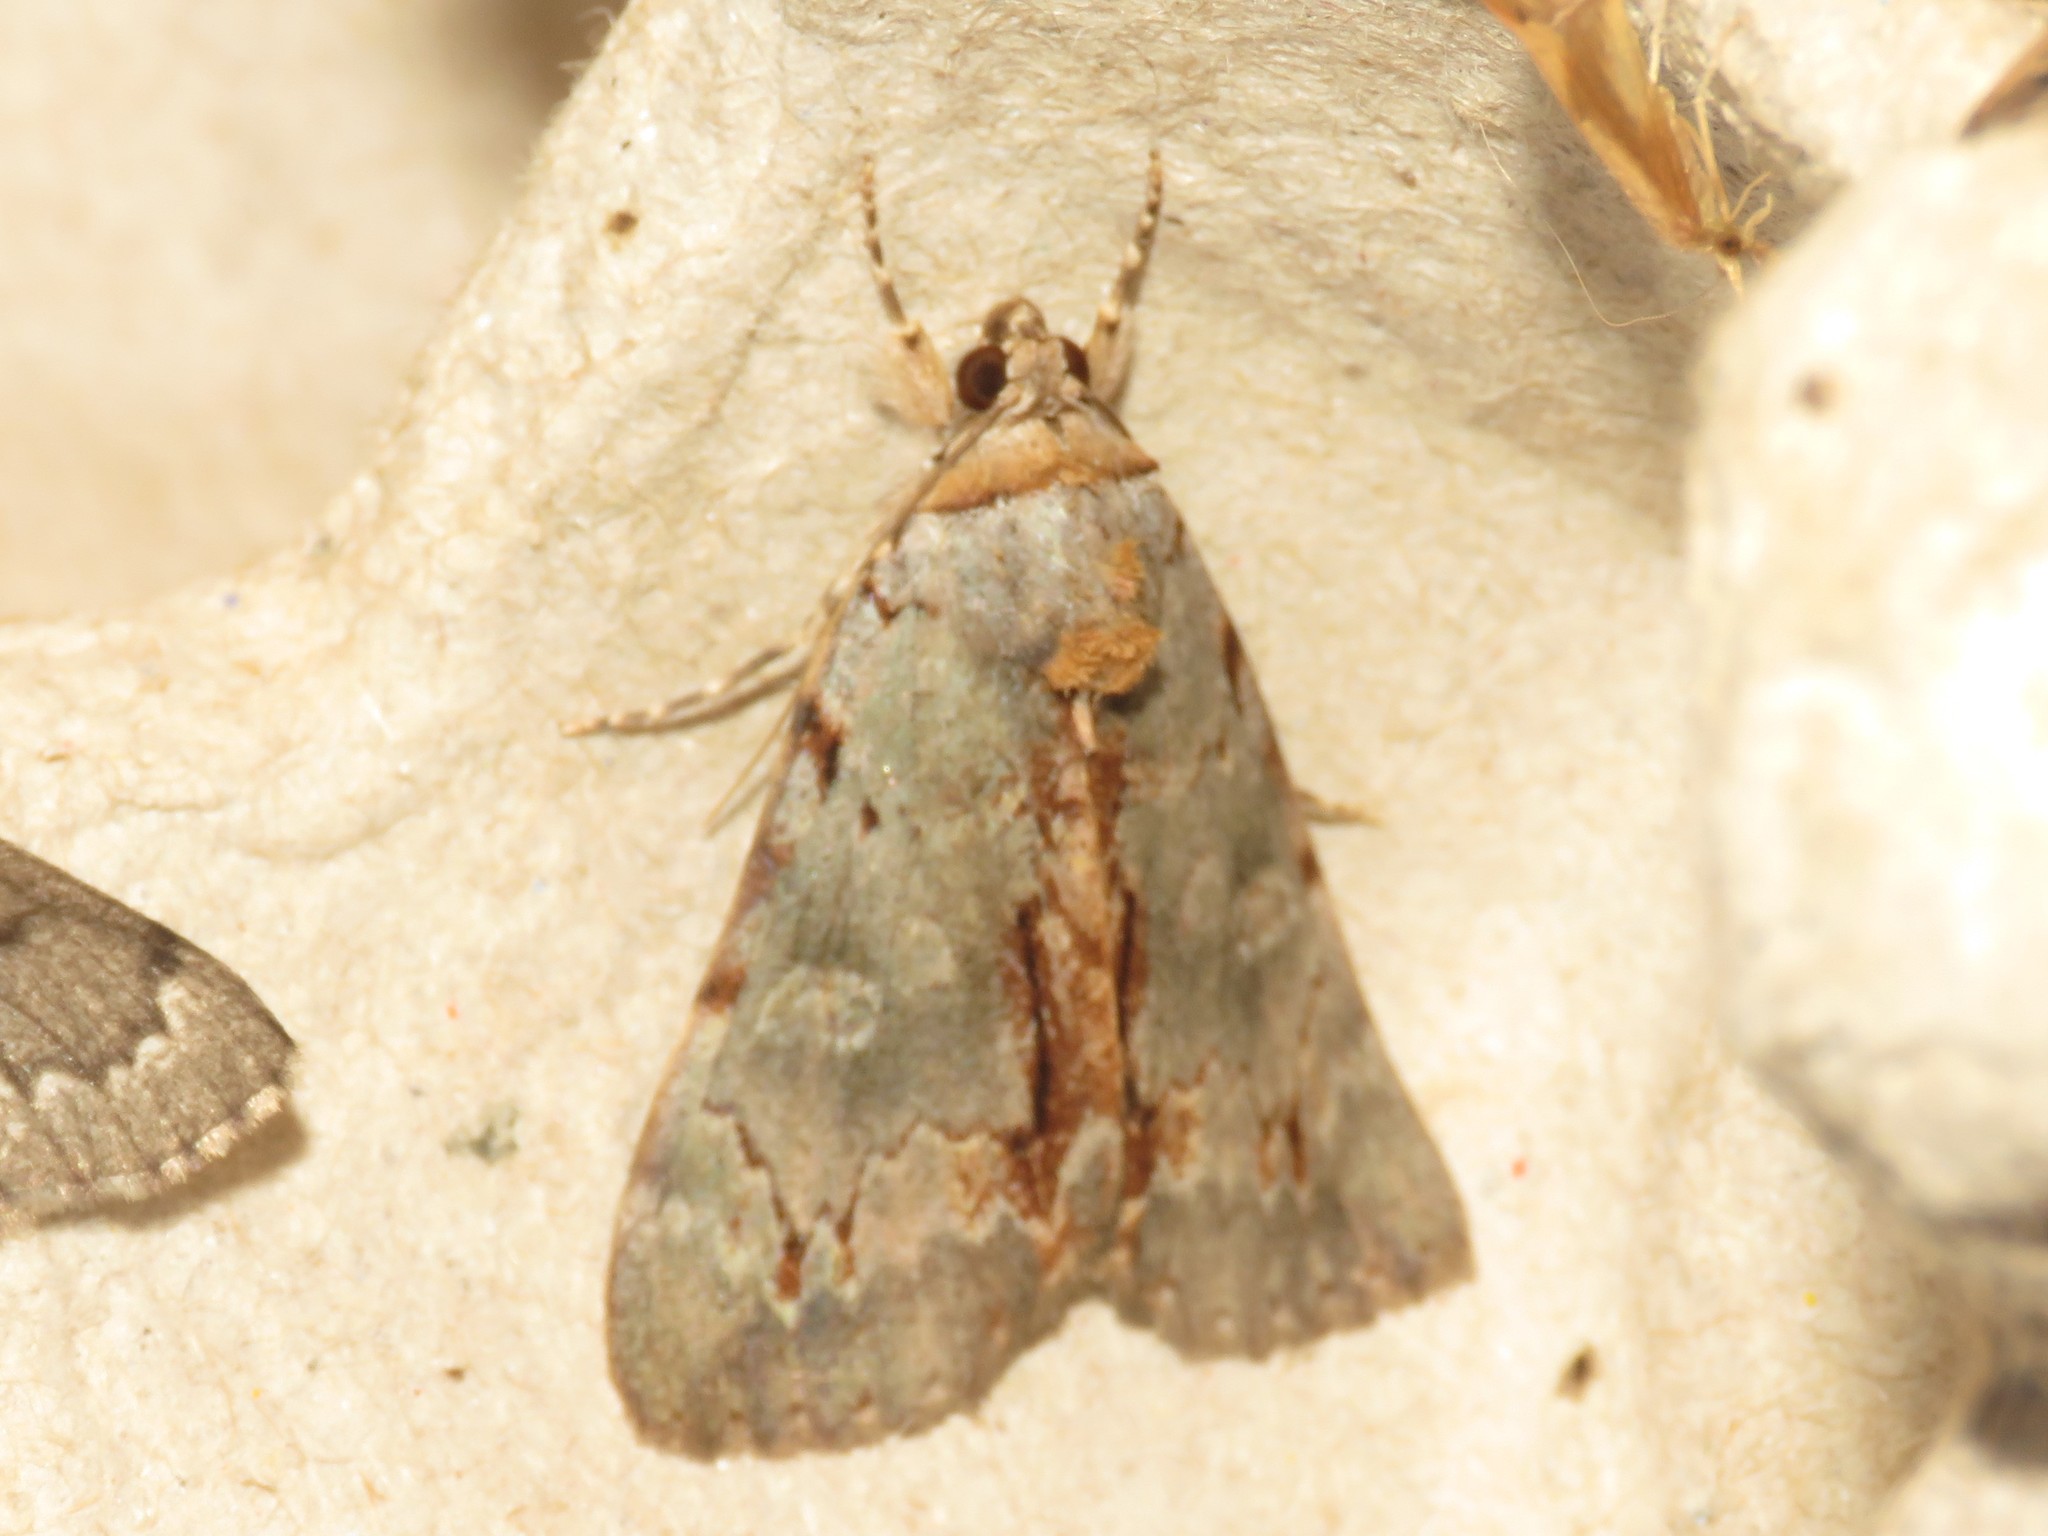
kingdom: Animalia
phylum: Arthropoda
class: Insecta
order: Lepidoptera
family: Erebidae
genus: Catocala
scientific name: Catocala grynea
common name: Woody underwing
